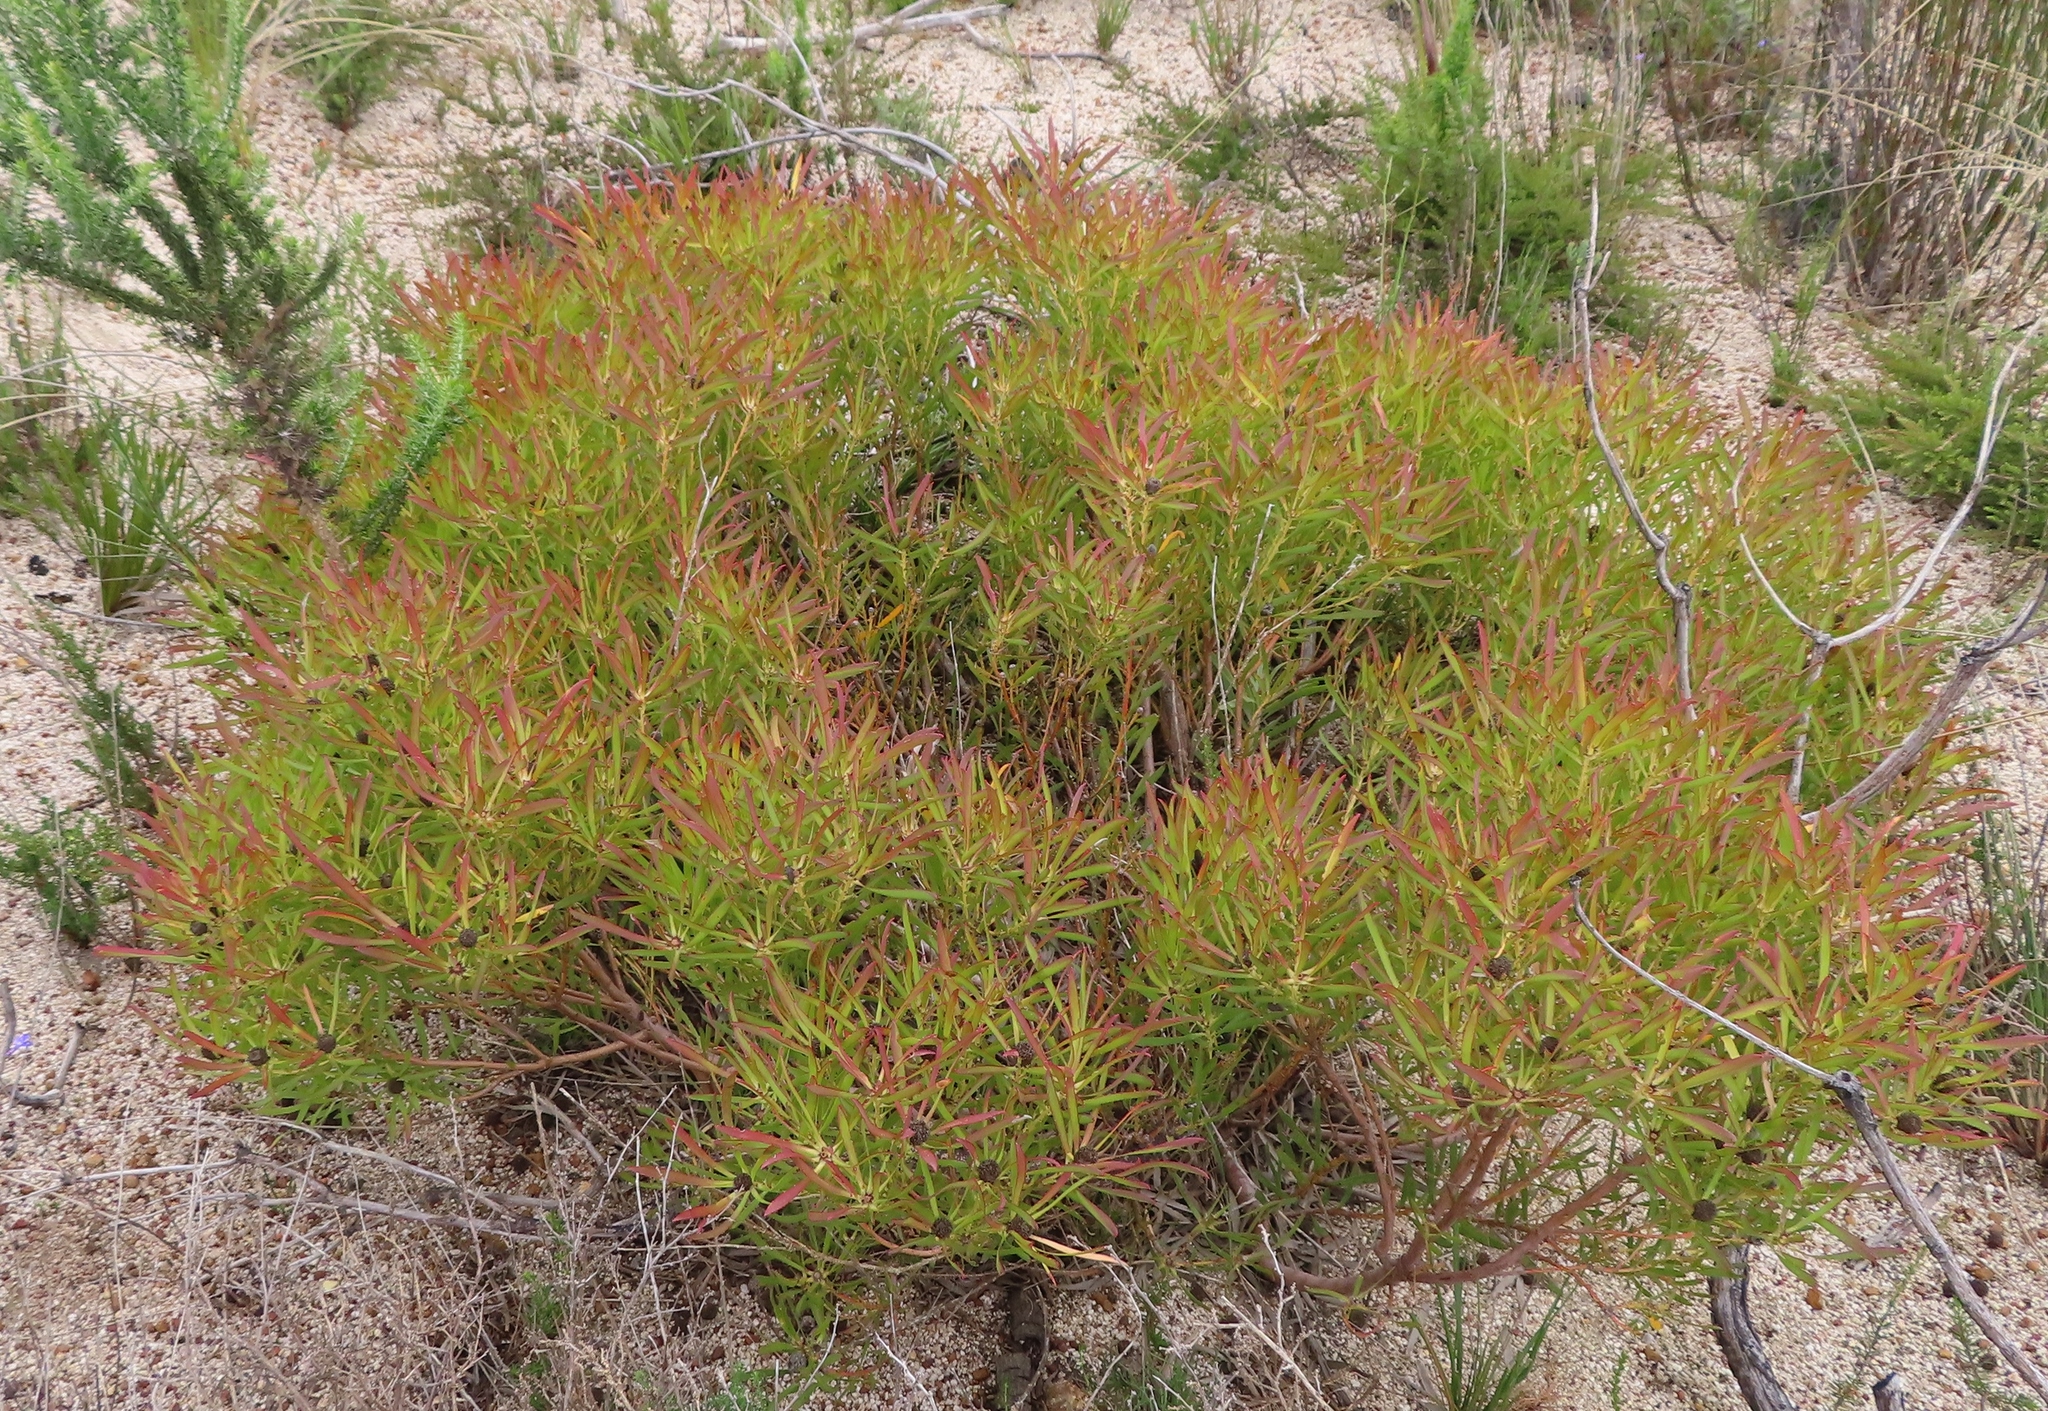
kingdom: Plantae
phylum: Tracheophyta
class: Magnoliopsida
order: Proteales
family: Proteaceae
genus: Leucadendron
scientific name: Leucadendron salignum
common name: Common sunshine conebush
